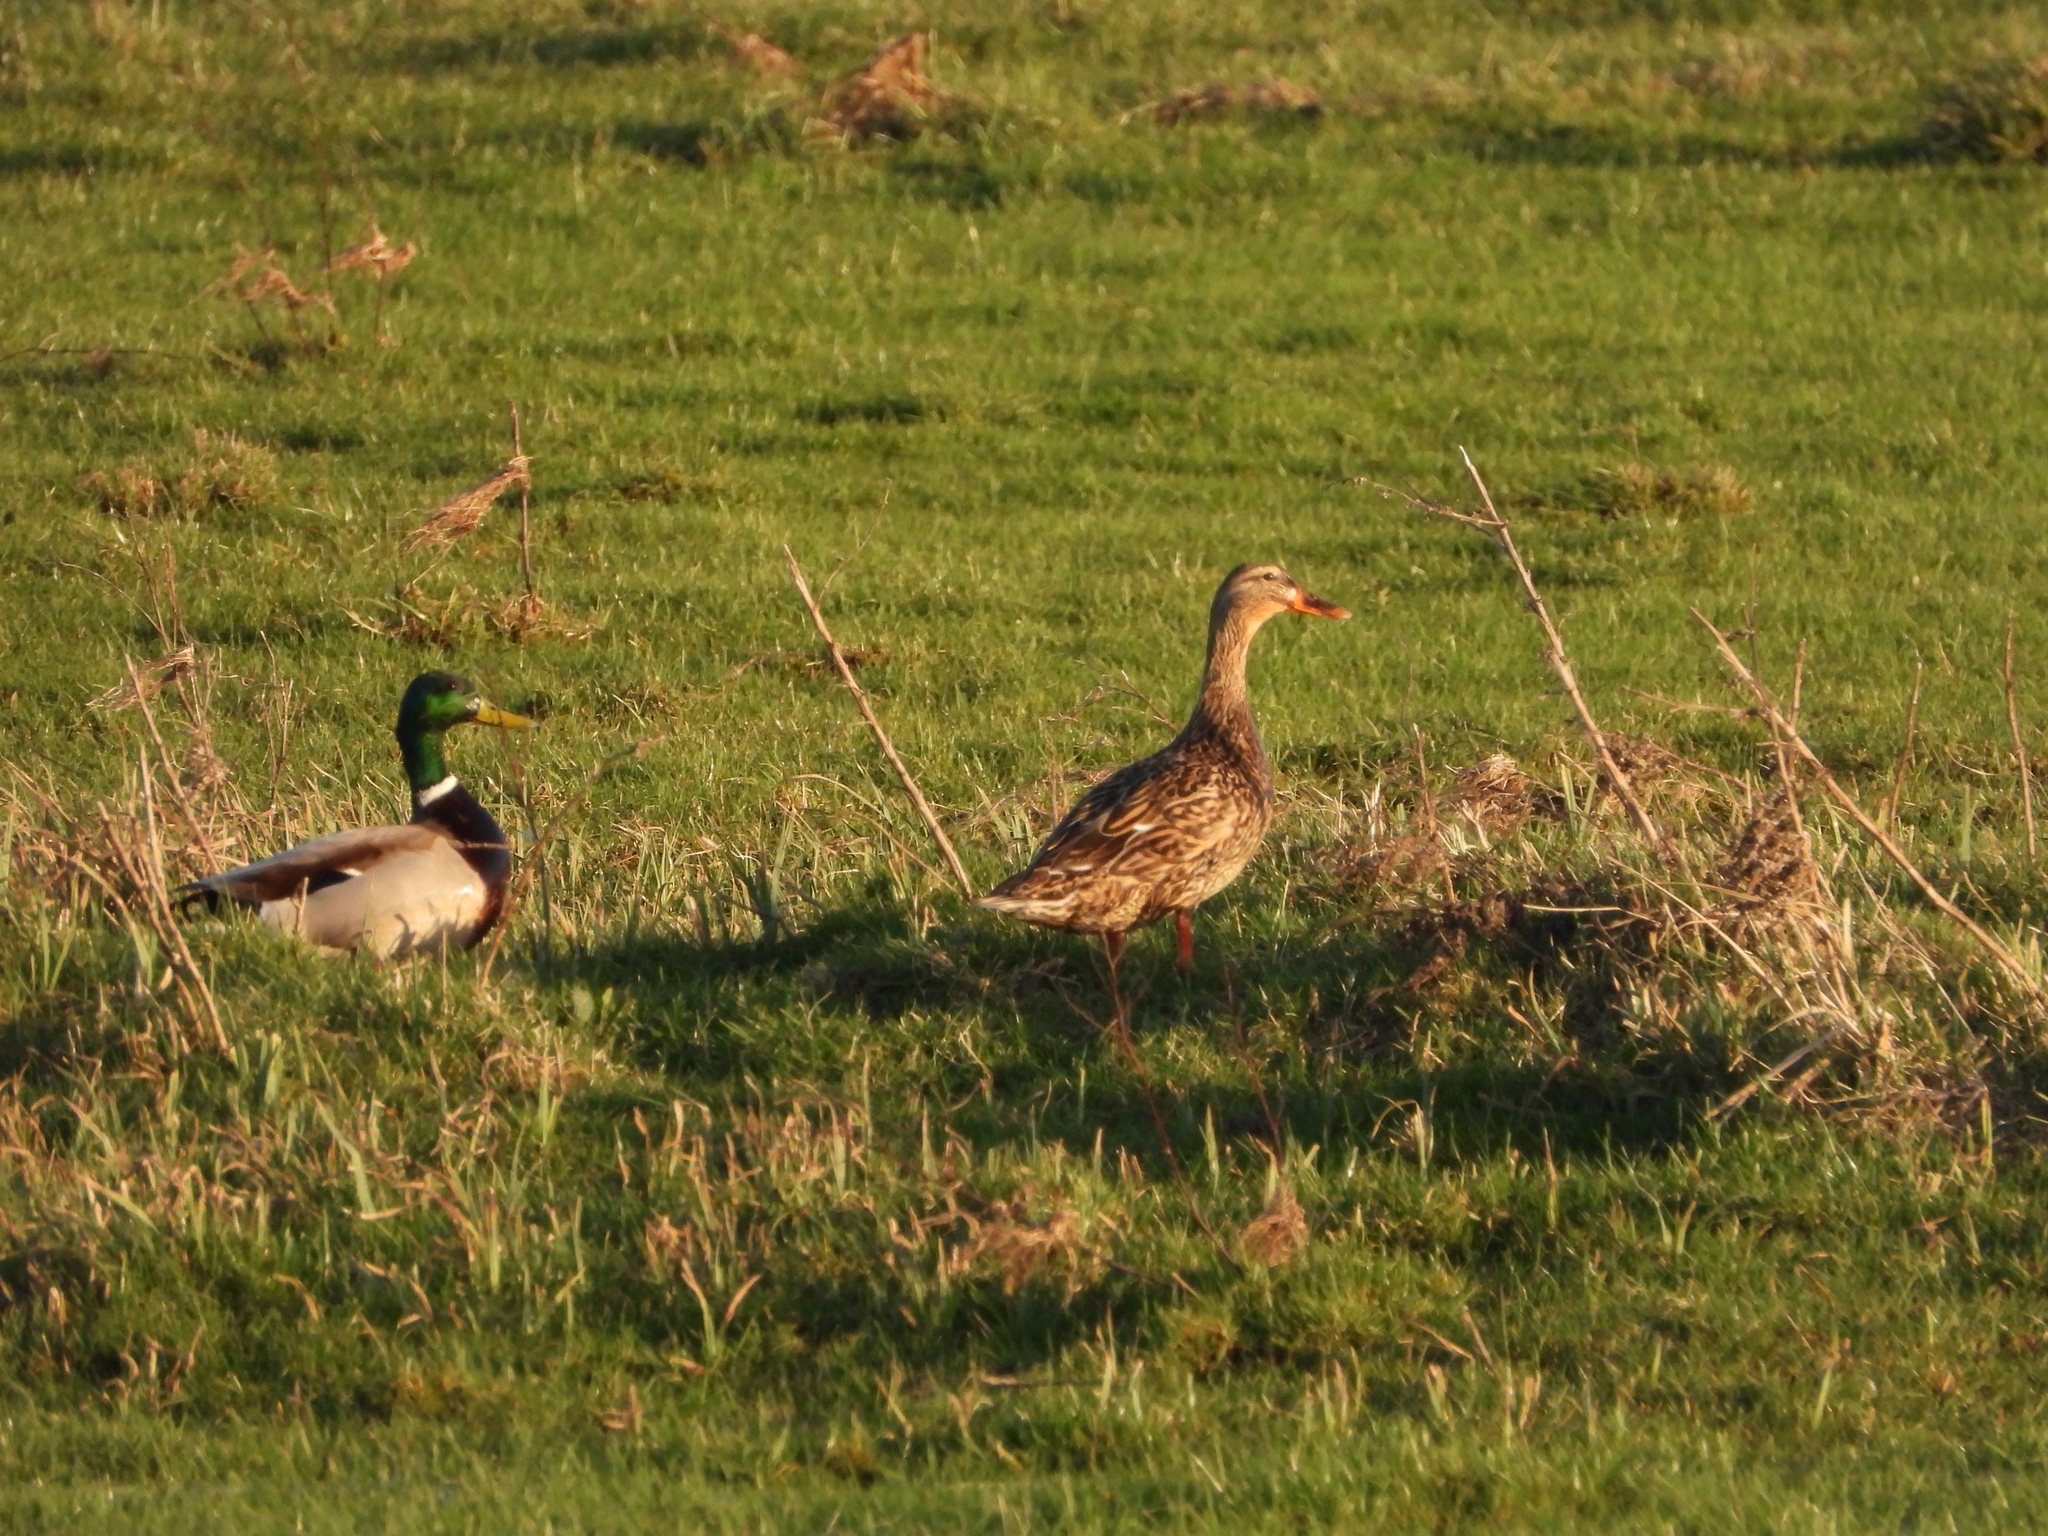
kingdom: Animalia
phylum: Chordata
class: Aves
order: Anseriformes
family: Anatidae
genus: Anas
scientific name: Anas platyrhynchos
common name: Mallard
